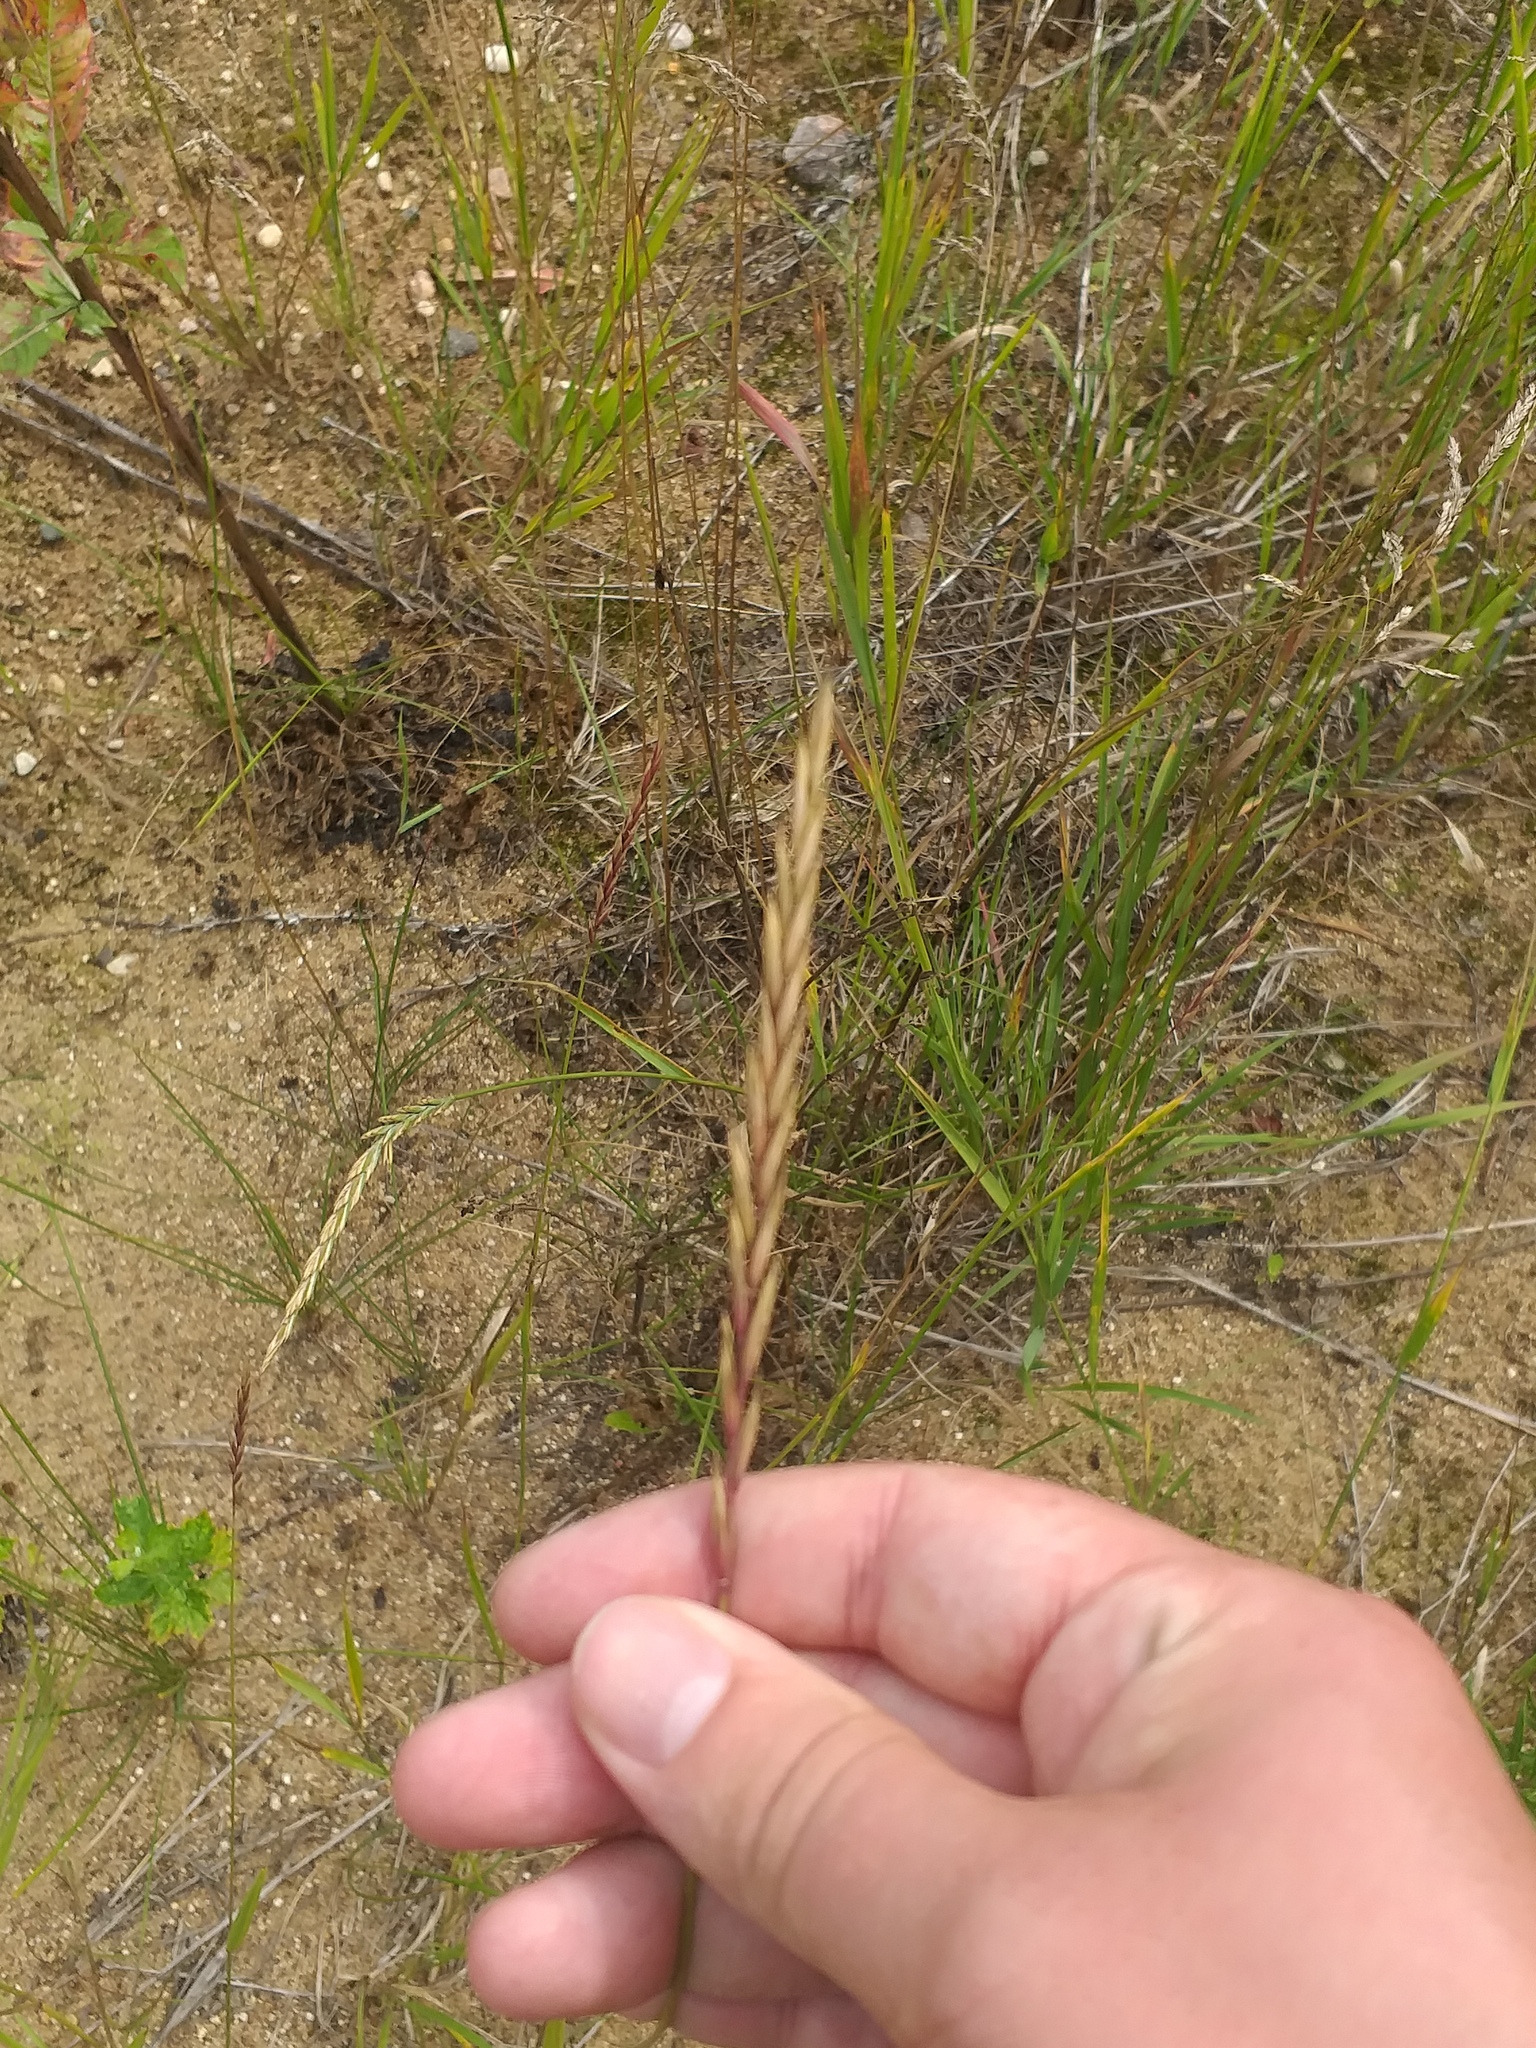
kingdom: Plantae
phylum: Tracheophyta
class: Liliopsida
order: Poales
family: Poaceae
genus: Elymus
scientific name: Elymus repens
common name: Quackgrass
